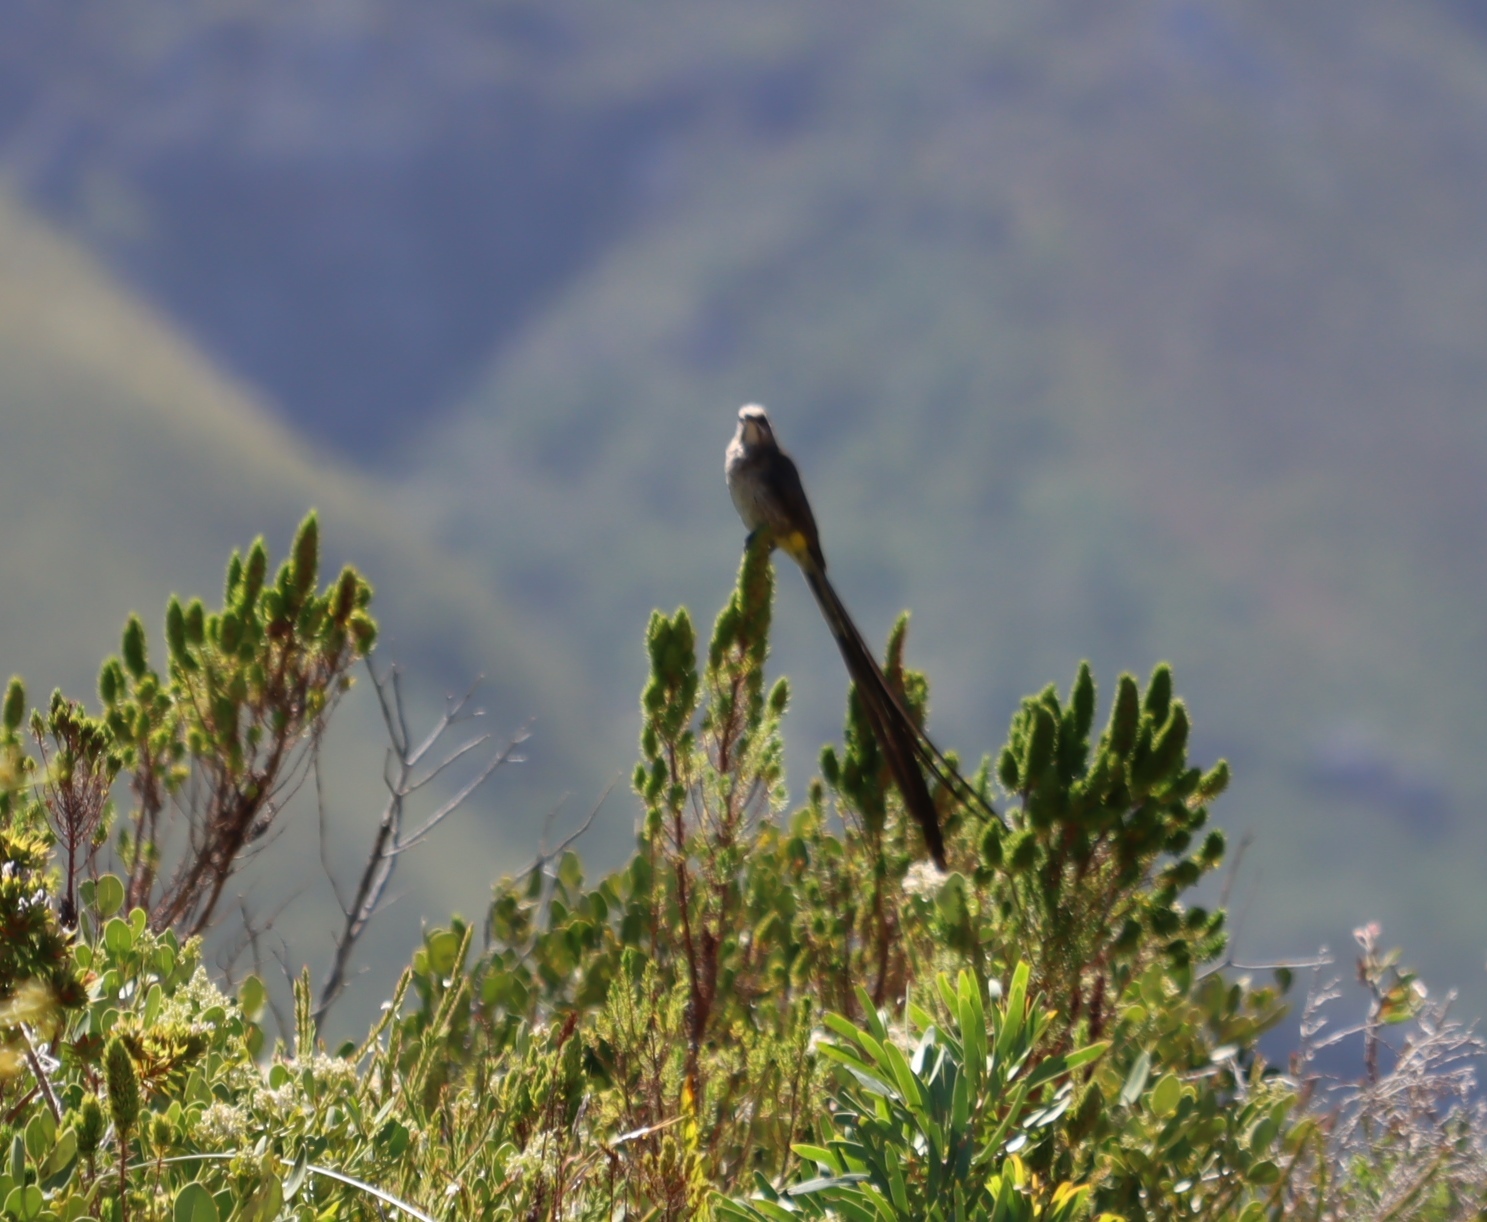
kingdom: Animalia
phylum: Chordata
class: Aves
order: Passeriformes
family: Promeropidae
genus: Promerops
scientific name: Promerops cafer
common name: Cape sugarbird
